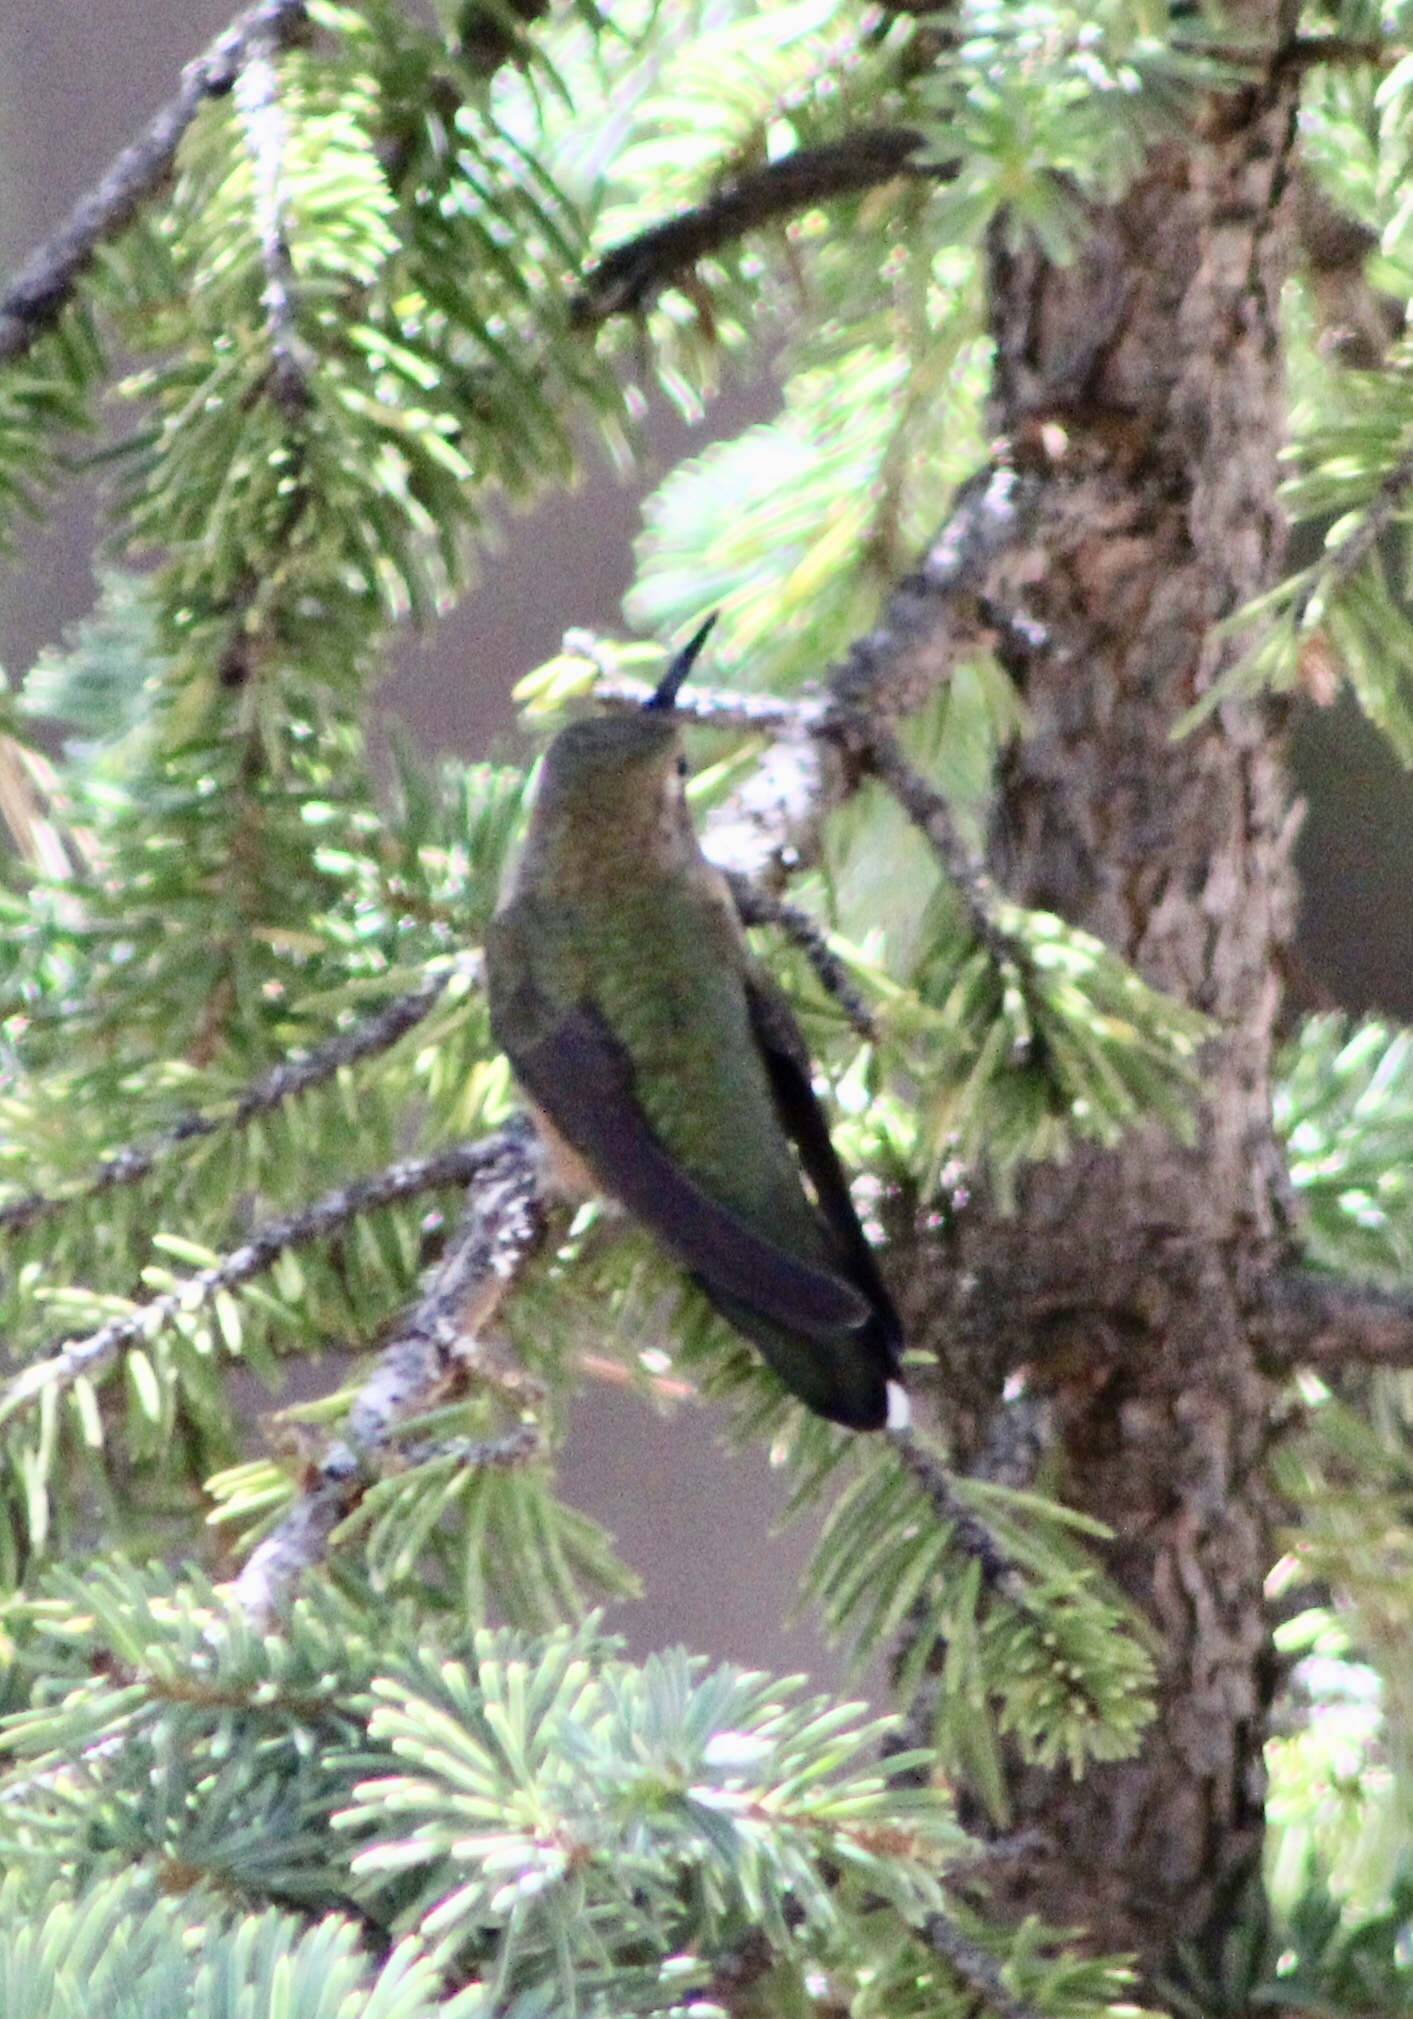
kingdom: Animalia
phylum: Chordata
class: Aves
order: Apodiformes
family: Trochilidae
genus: Selasphorus
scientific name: Selasphorus platycercus
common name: Broad-tailed hummingbird
